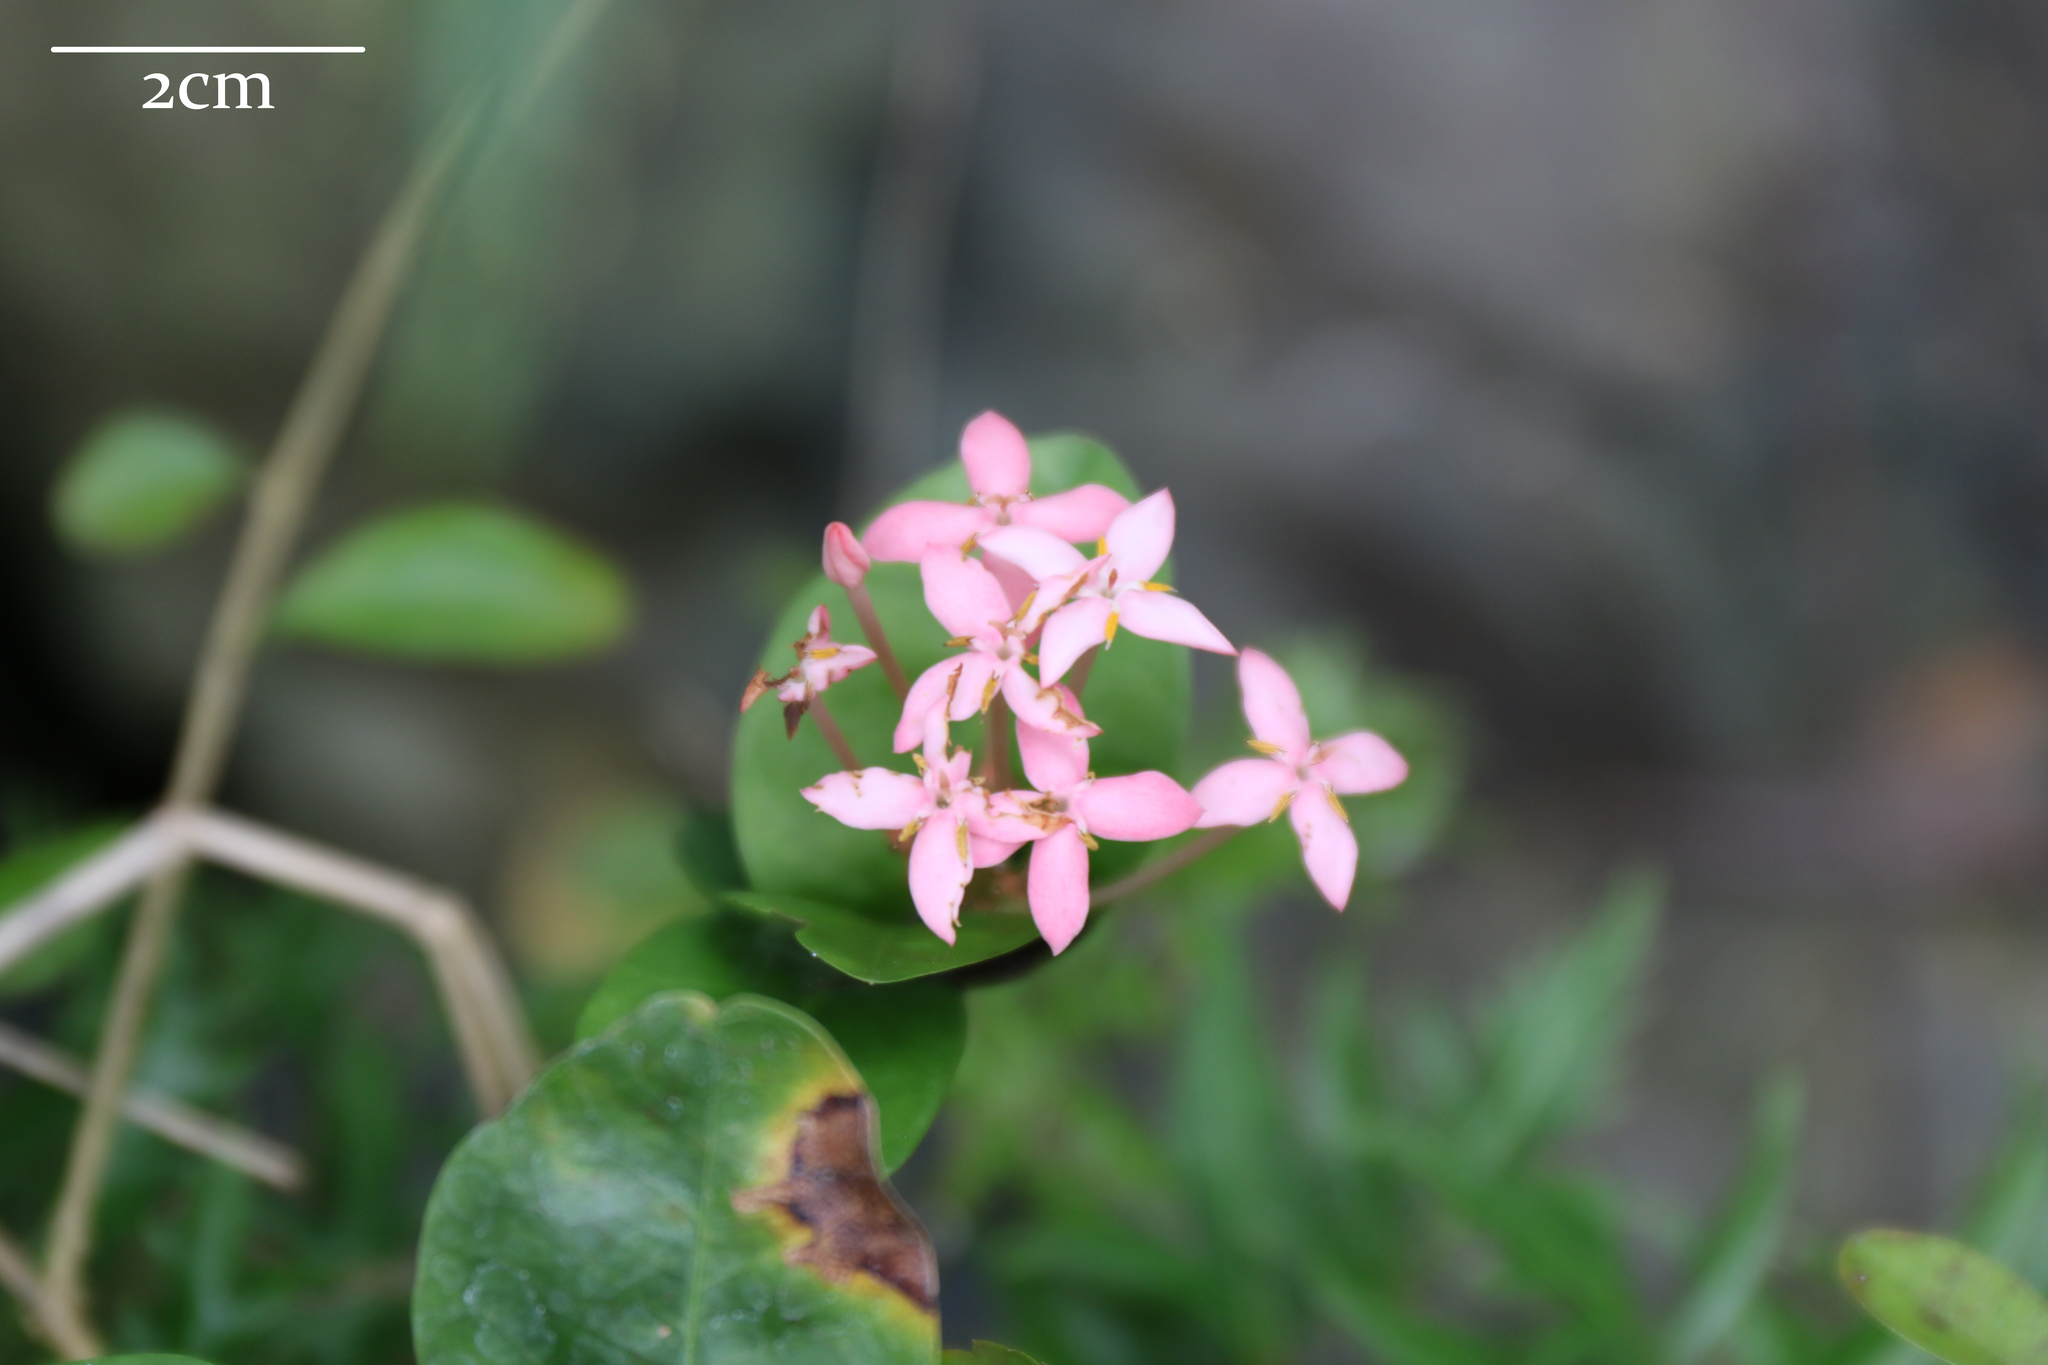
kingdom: Plantae
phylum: Tracheophyta
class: Magnoliopsida
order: Gentianales
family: Rubiaceae
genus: Ixora
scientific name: Ixora coccinea
